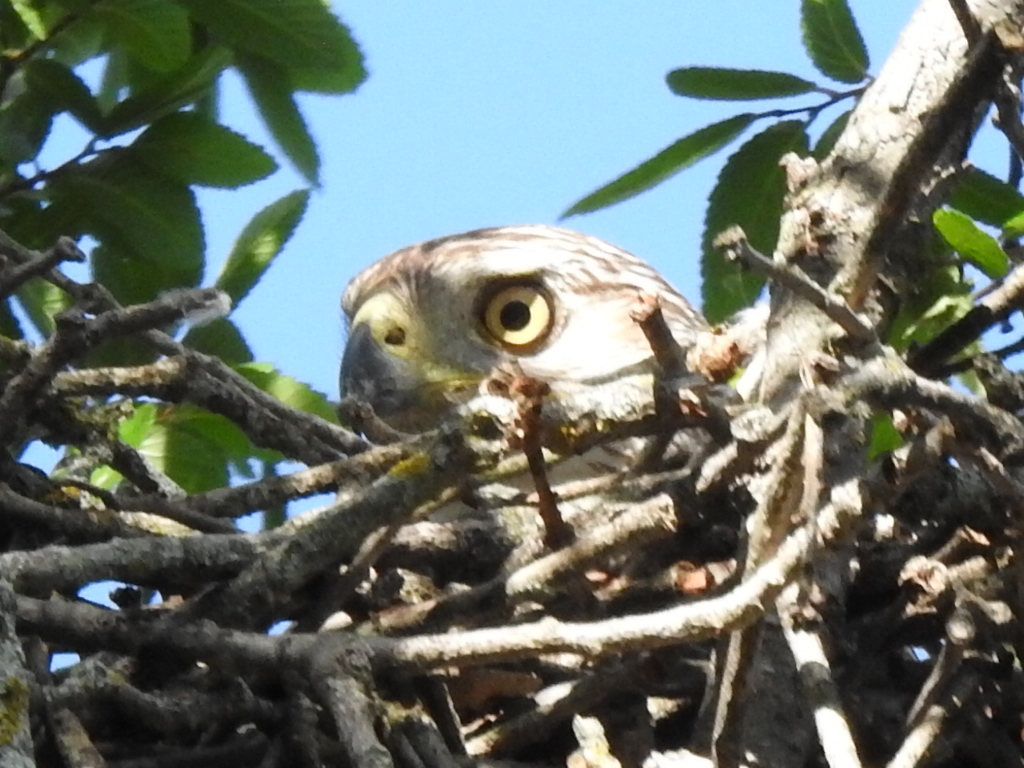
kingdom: Animalia
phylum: Chordata
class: Aves
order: Accipitriformes
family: Accipitridae
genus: Accipiter
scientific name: Accipiter cooperii
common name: Cooper's hawk
